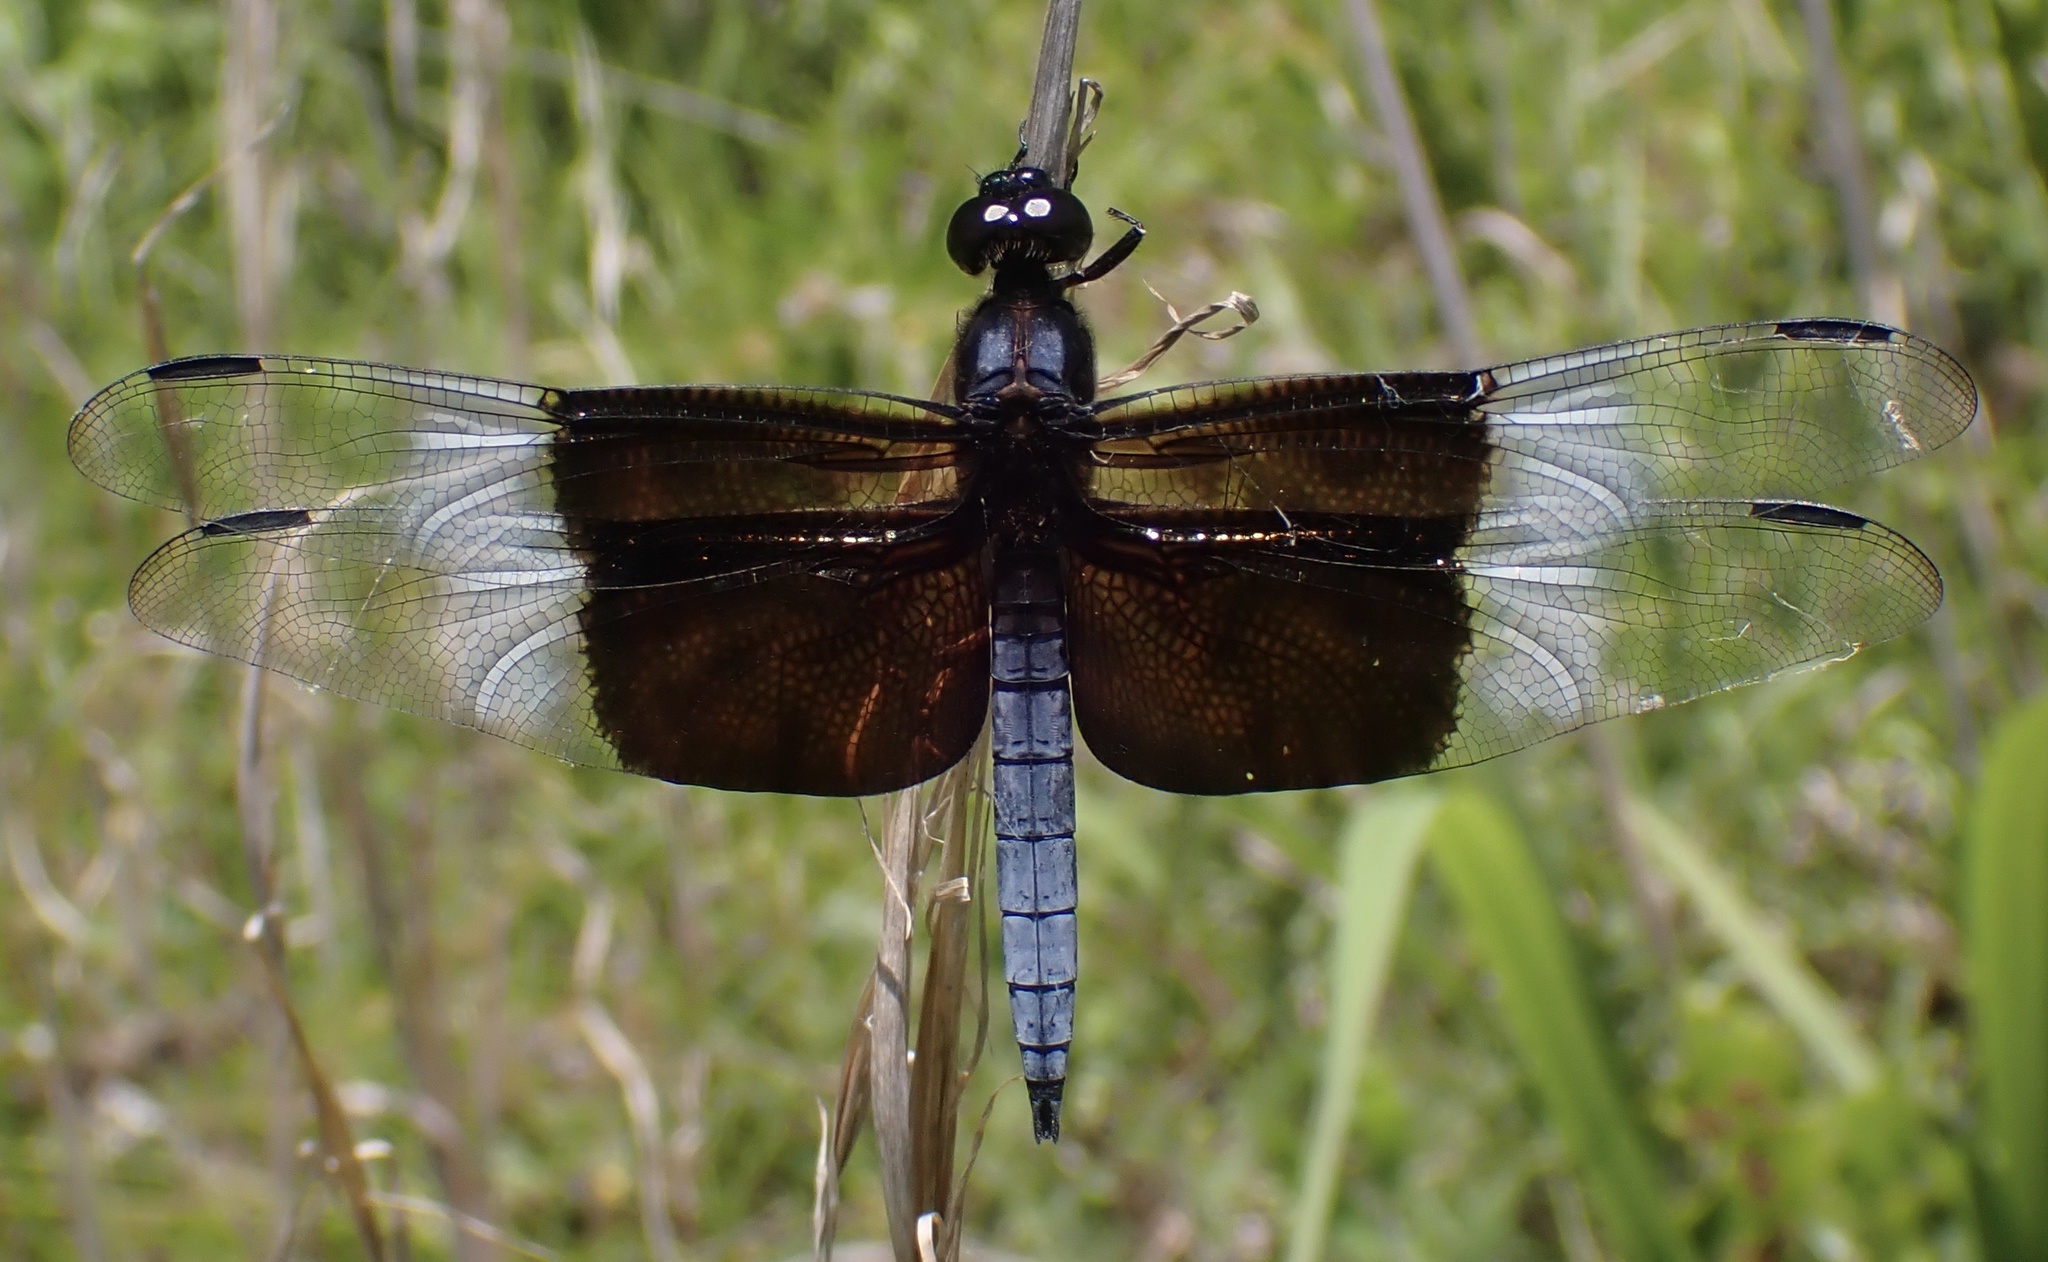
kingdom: Animalia
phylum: Arthropoda
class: Insecta
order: Odonata
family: Libellulidae
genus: Libellula
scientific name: Libellula luctuosa
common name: Widow skimmer
